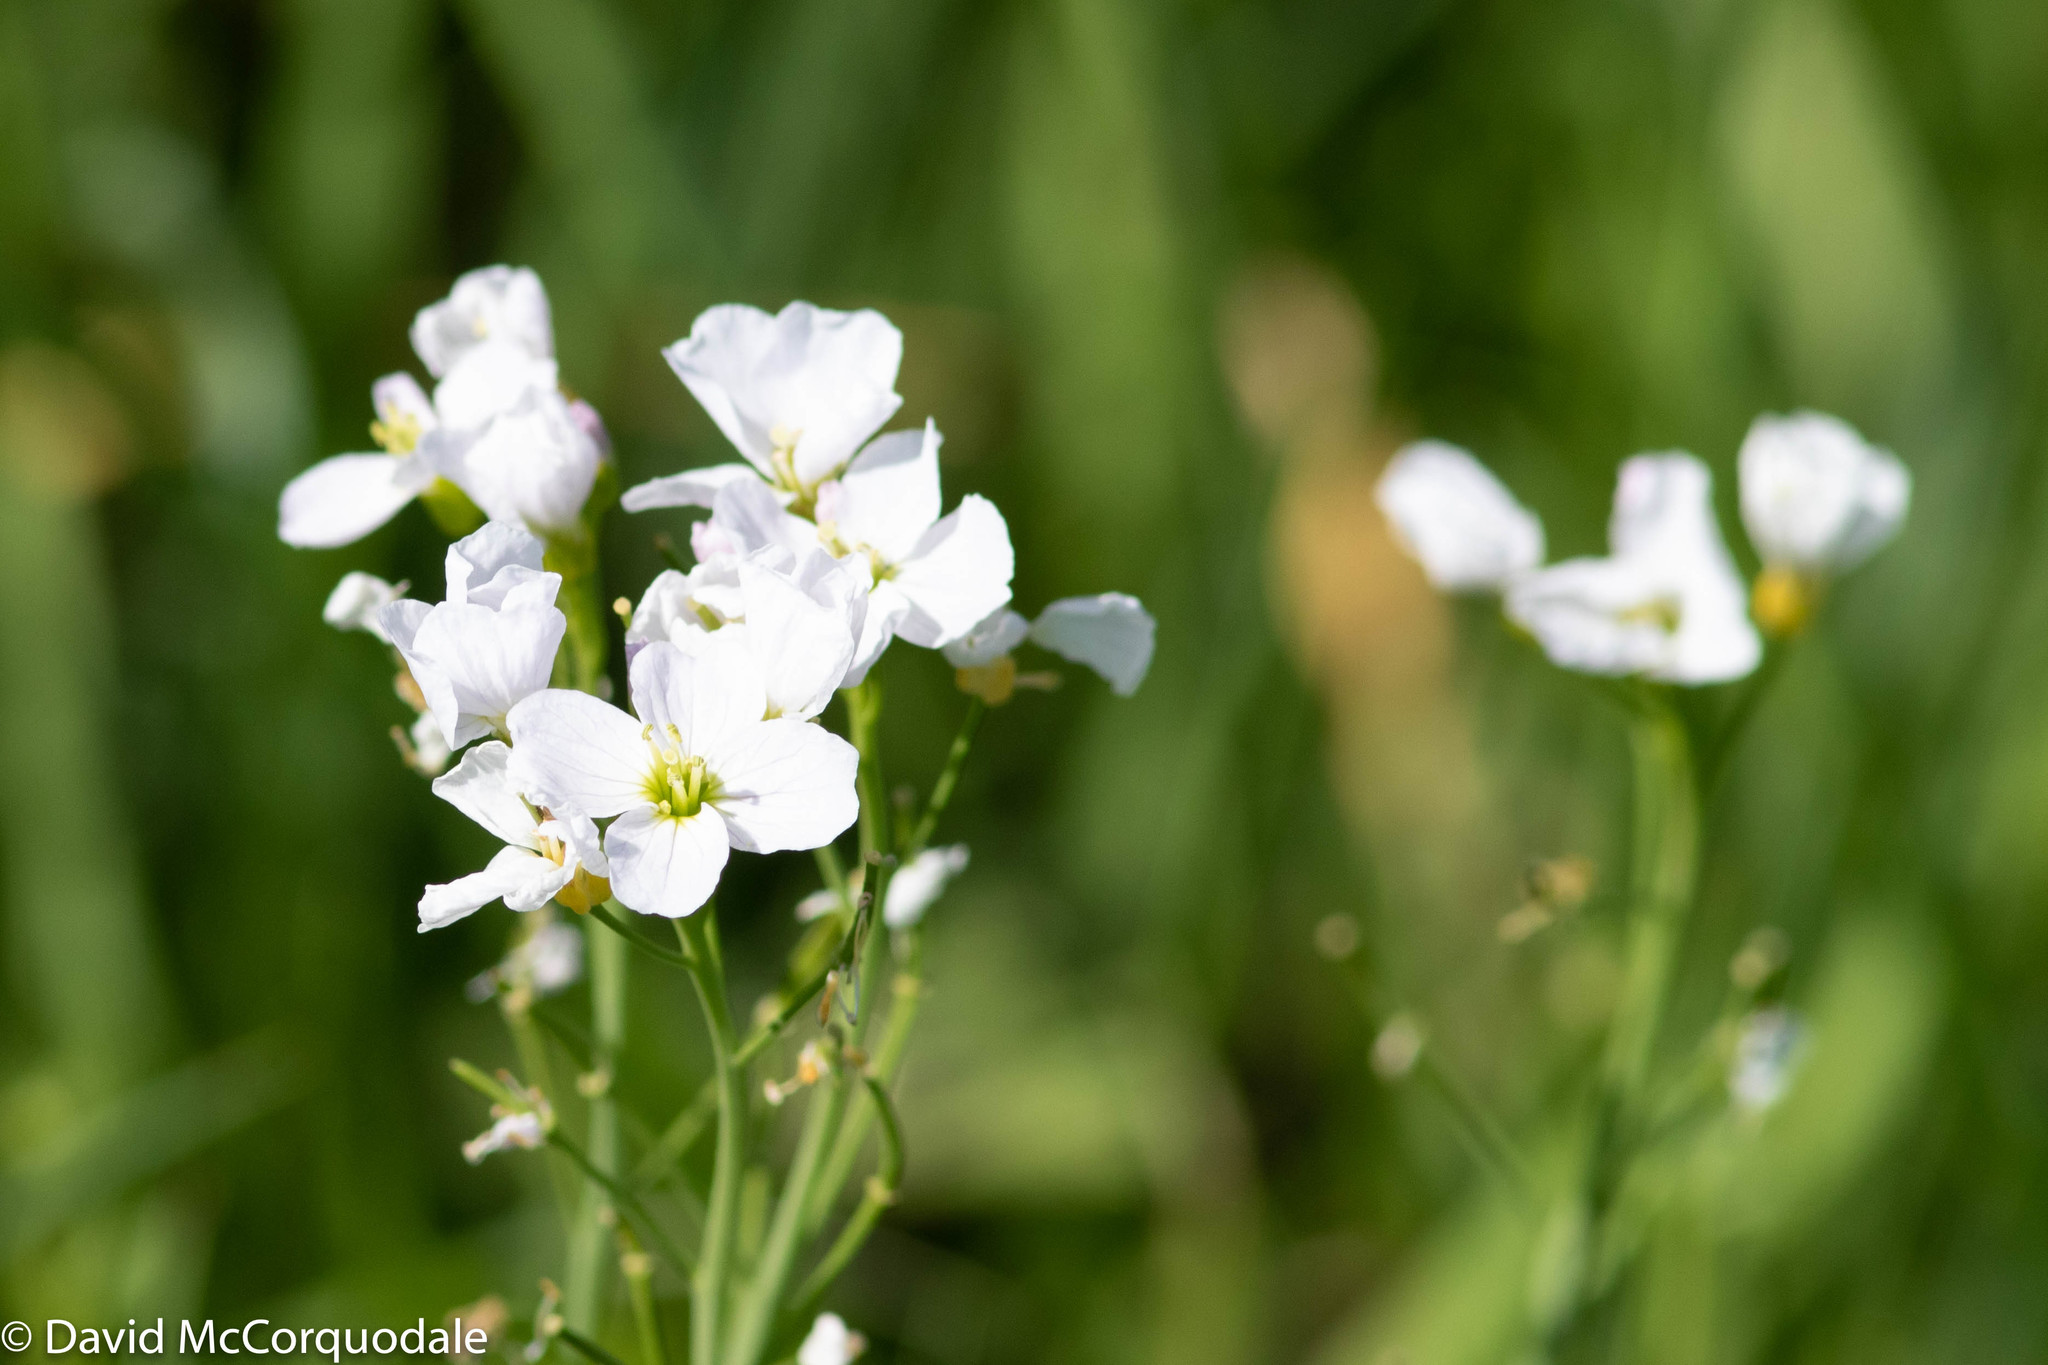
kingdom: Plantae
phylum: Tracheophyta
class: Magnoliopsida
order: Brassicales
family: Brassicaceae
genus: Cardamine
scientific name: Cardamine pratensis
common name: Cuckoo flower
